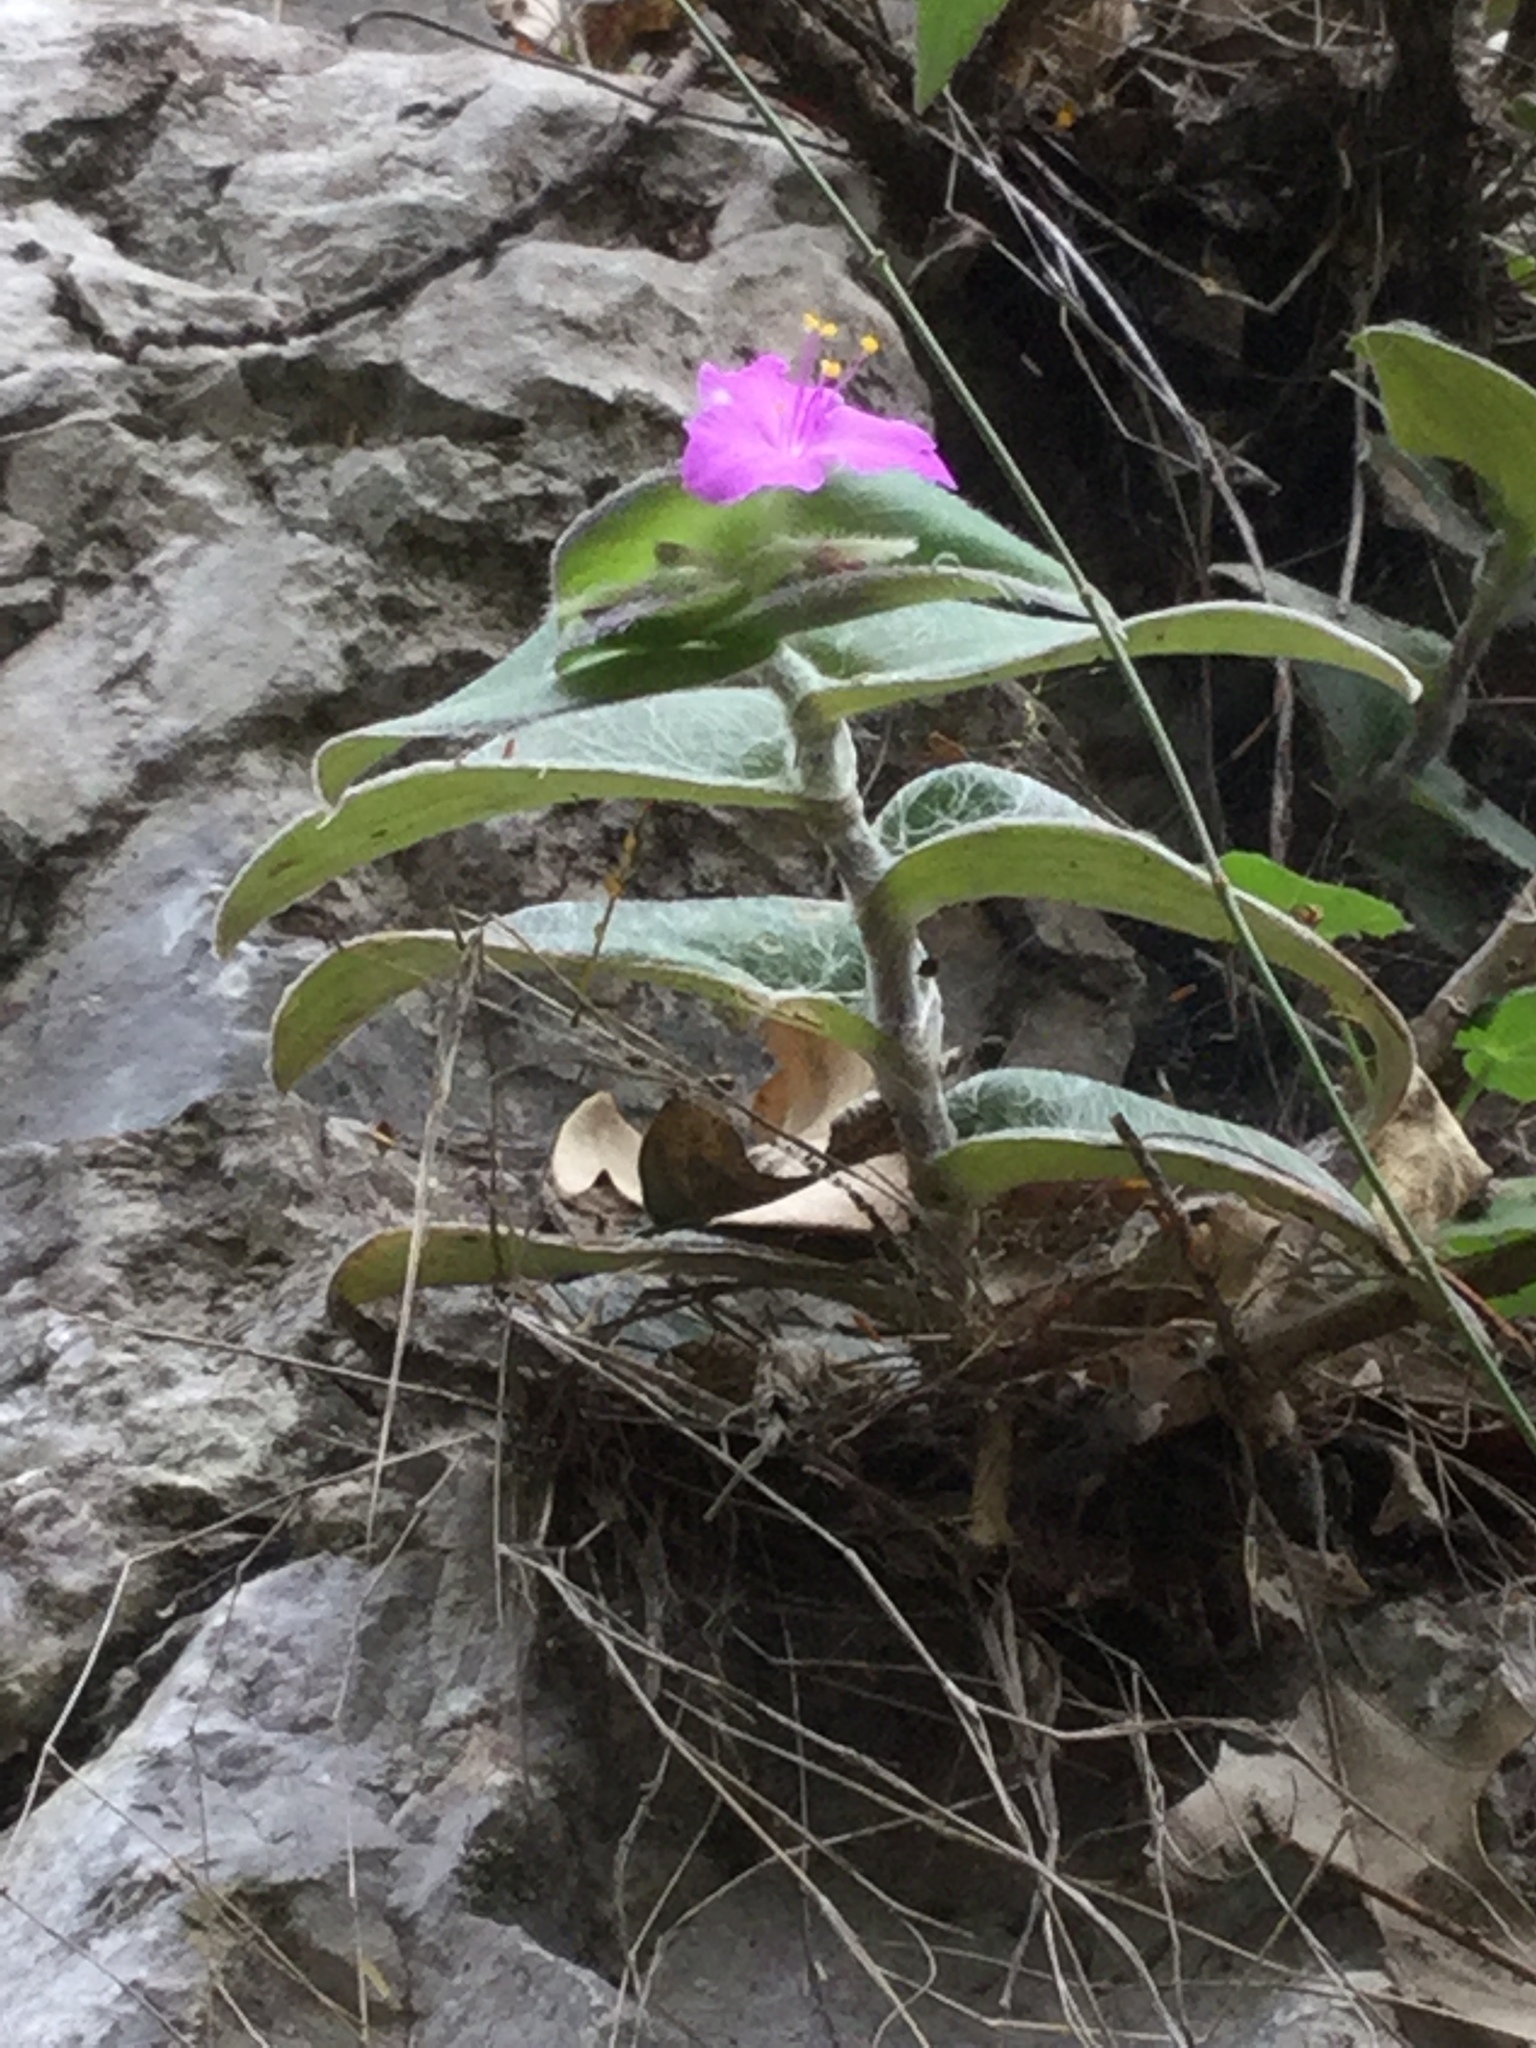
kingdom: Plantae
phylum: Tracheophyta
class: Liliopsida
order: Commelinales
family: Commelinaceae
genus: Tradescantia
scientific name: Tradescantia sillamontana
